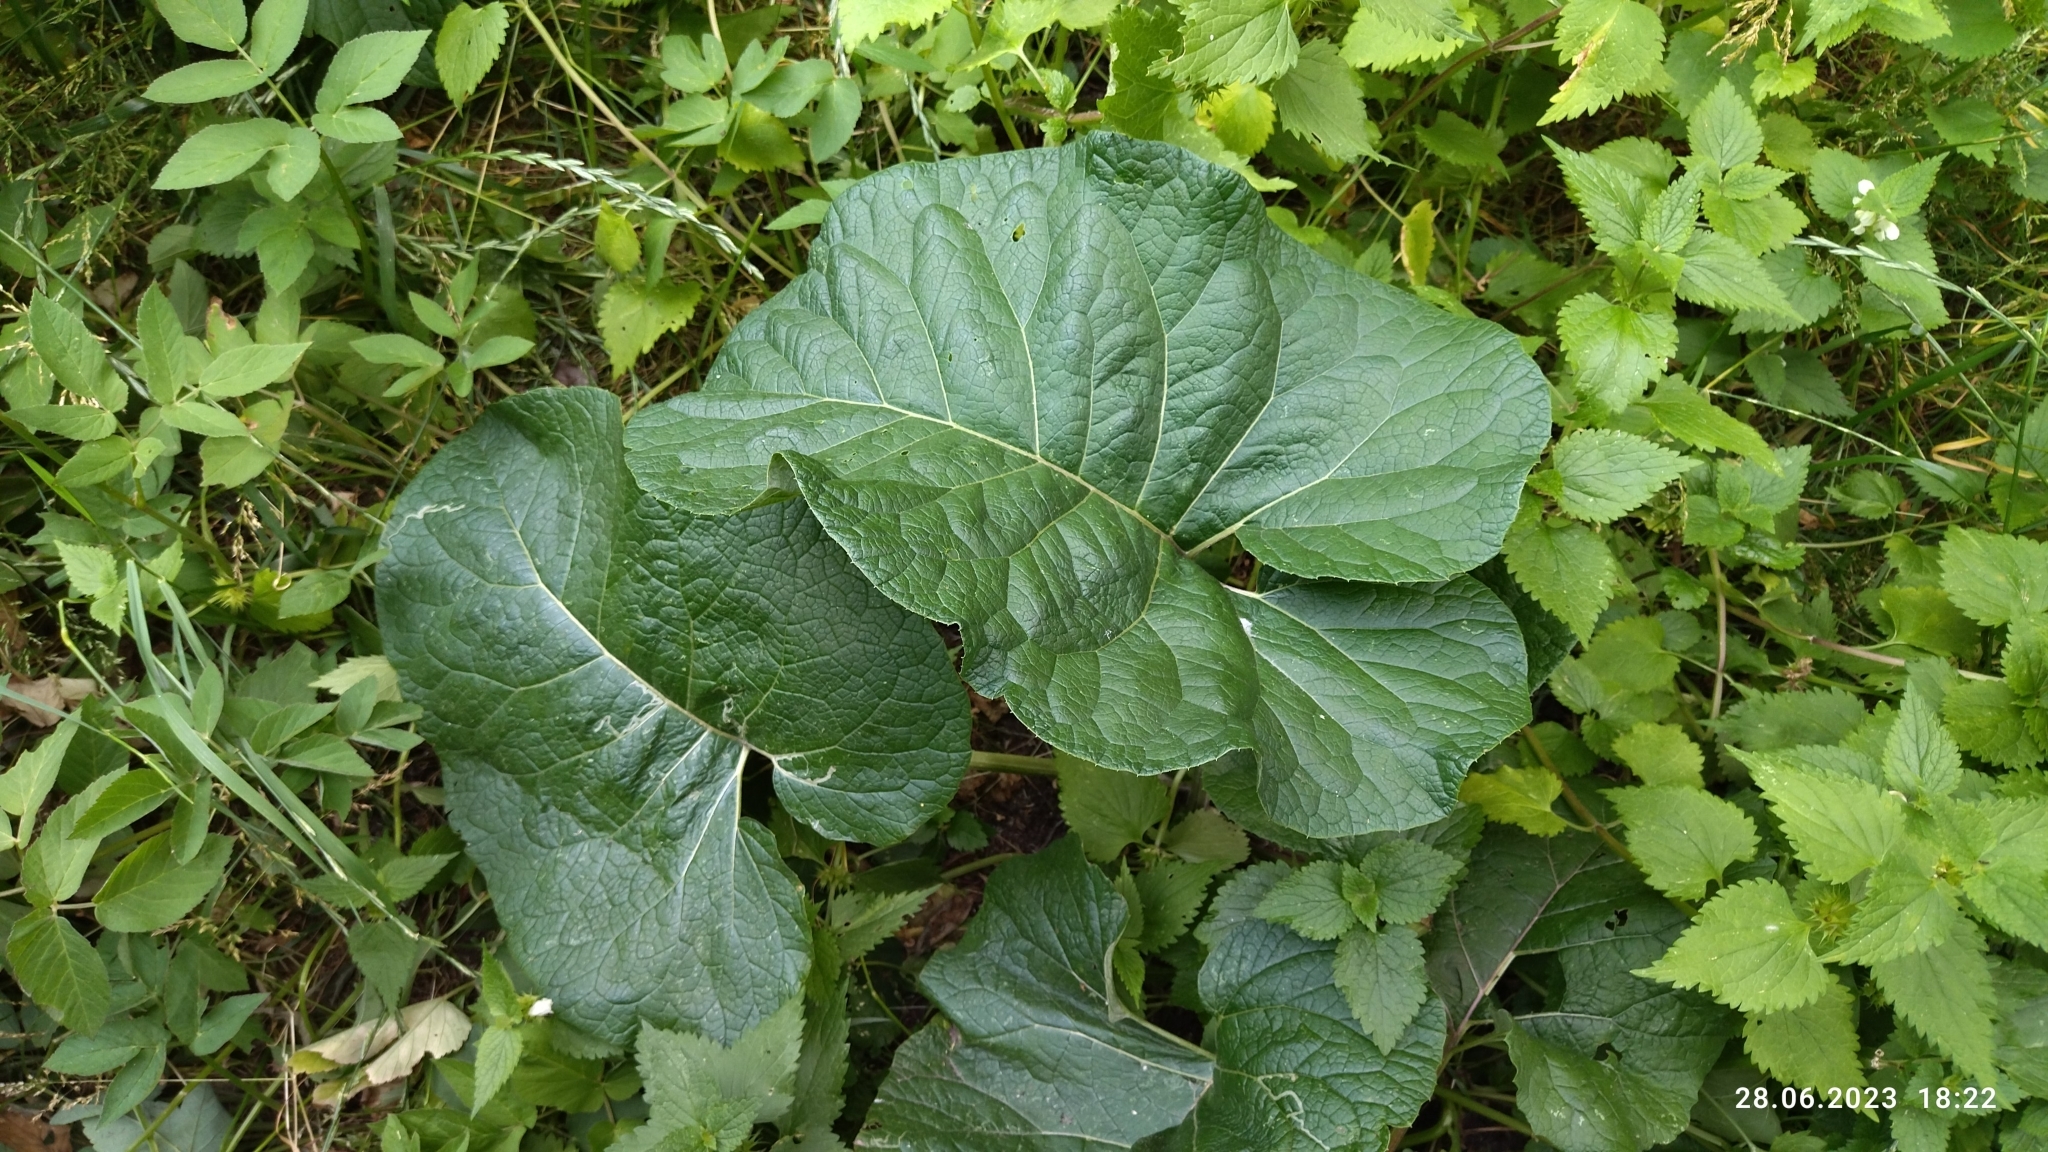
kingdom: Plantae
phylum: Tracheophyta
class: Magnoliopsida
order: Asterales
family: Asteraceae
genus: Arctium
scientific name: Arctium
